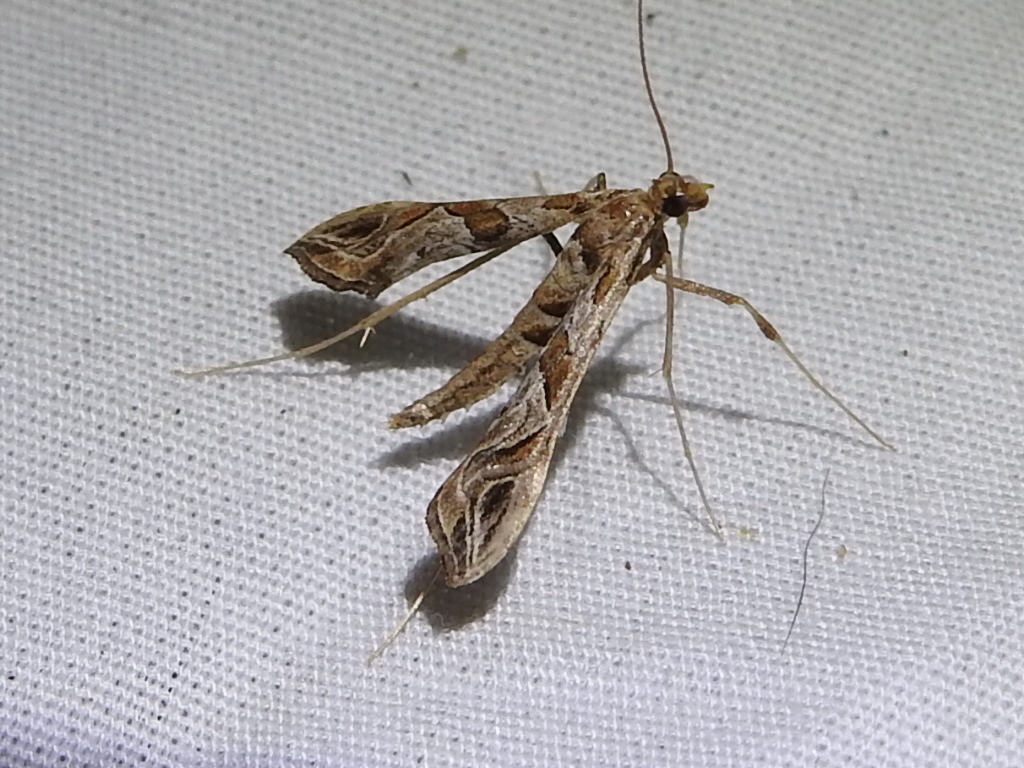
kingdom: Animalia
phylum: Arthropoda
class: Insecta
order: Lepidoptera
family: Crambidae
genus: Lineodes
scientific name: Lineodes interrupta
